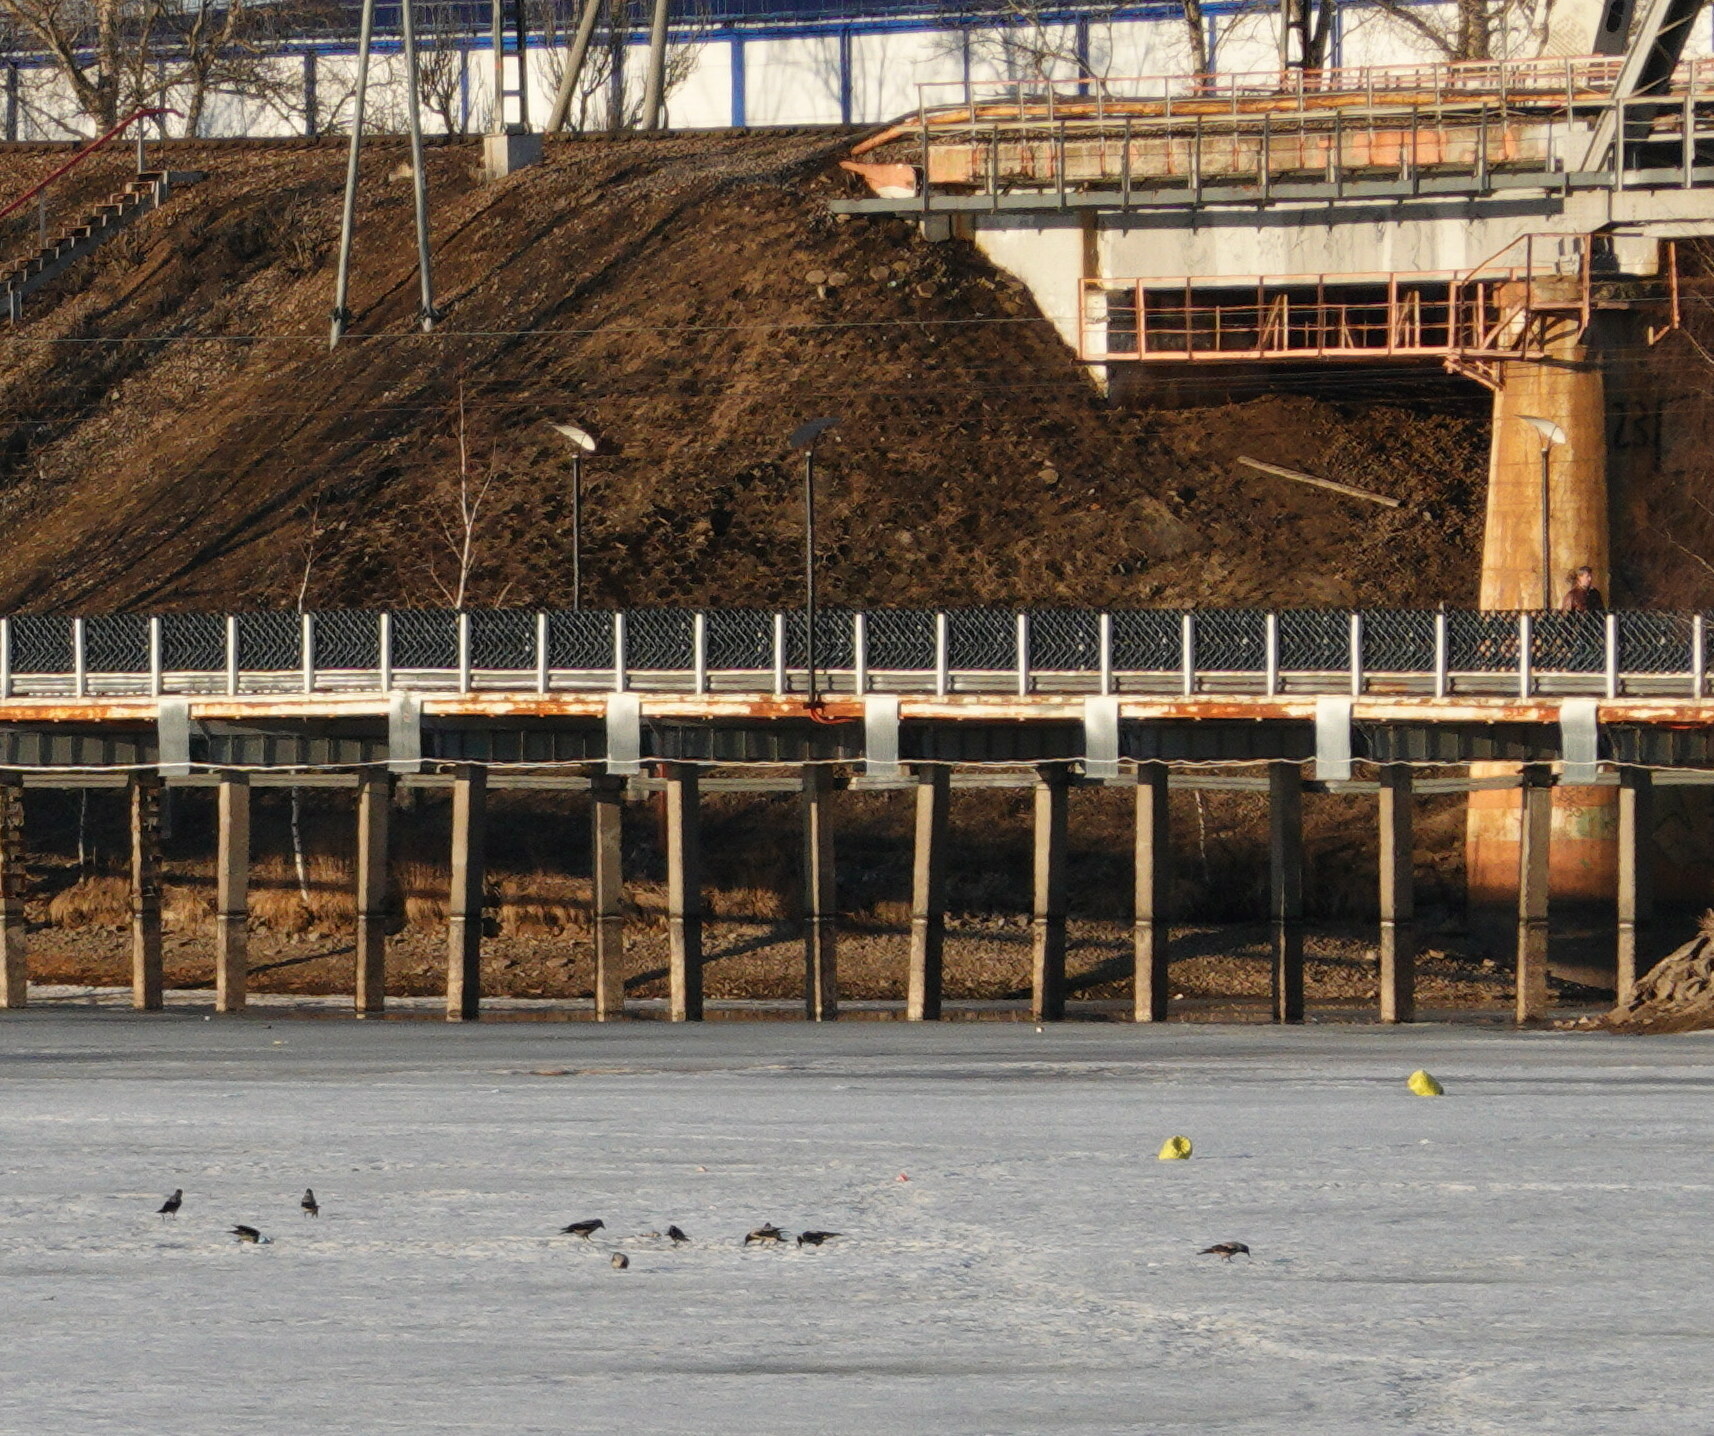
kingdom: Animalia
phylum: Chordata
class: Aves
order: Passeriformes
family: Corvidae
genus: Corvus
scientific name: Corvus cornix
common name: Hooded crow
